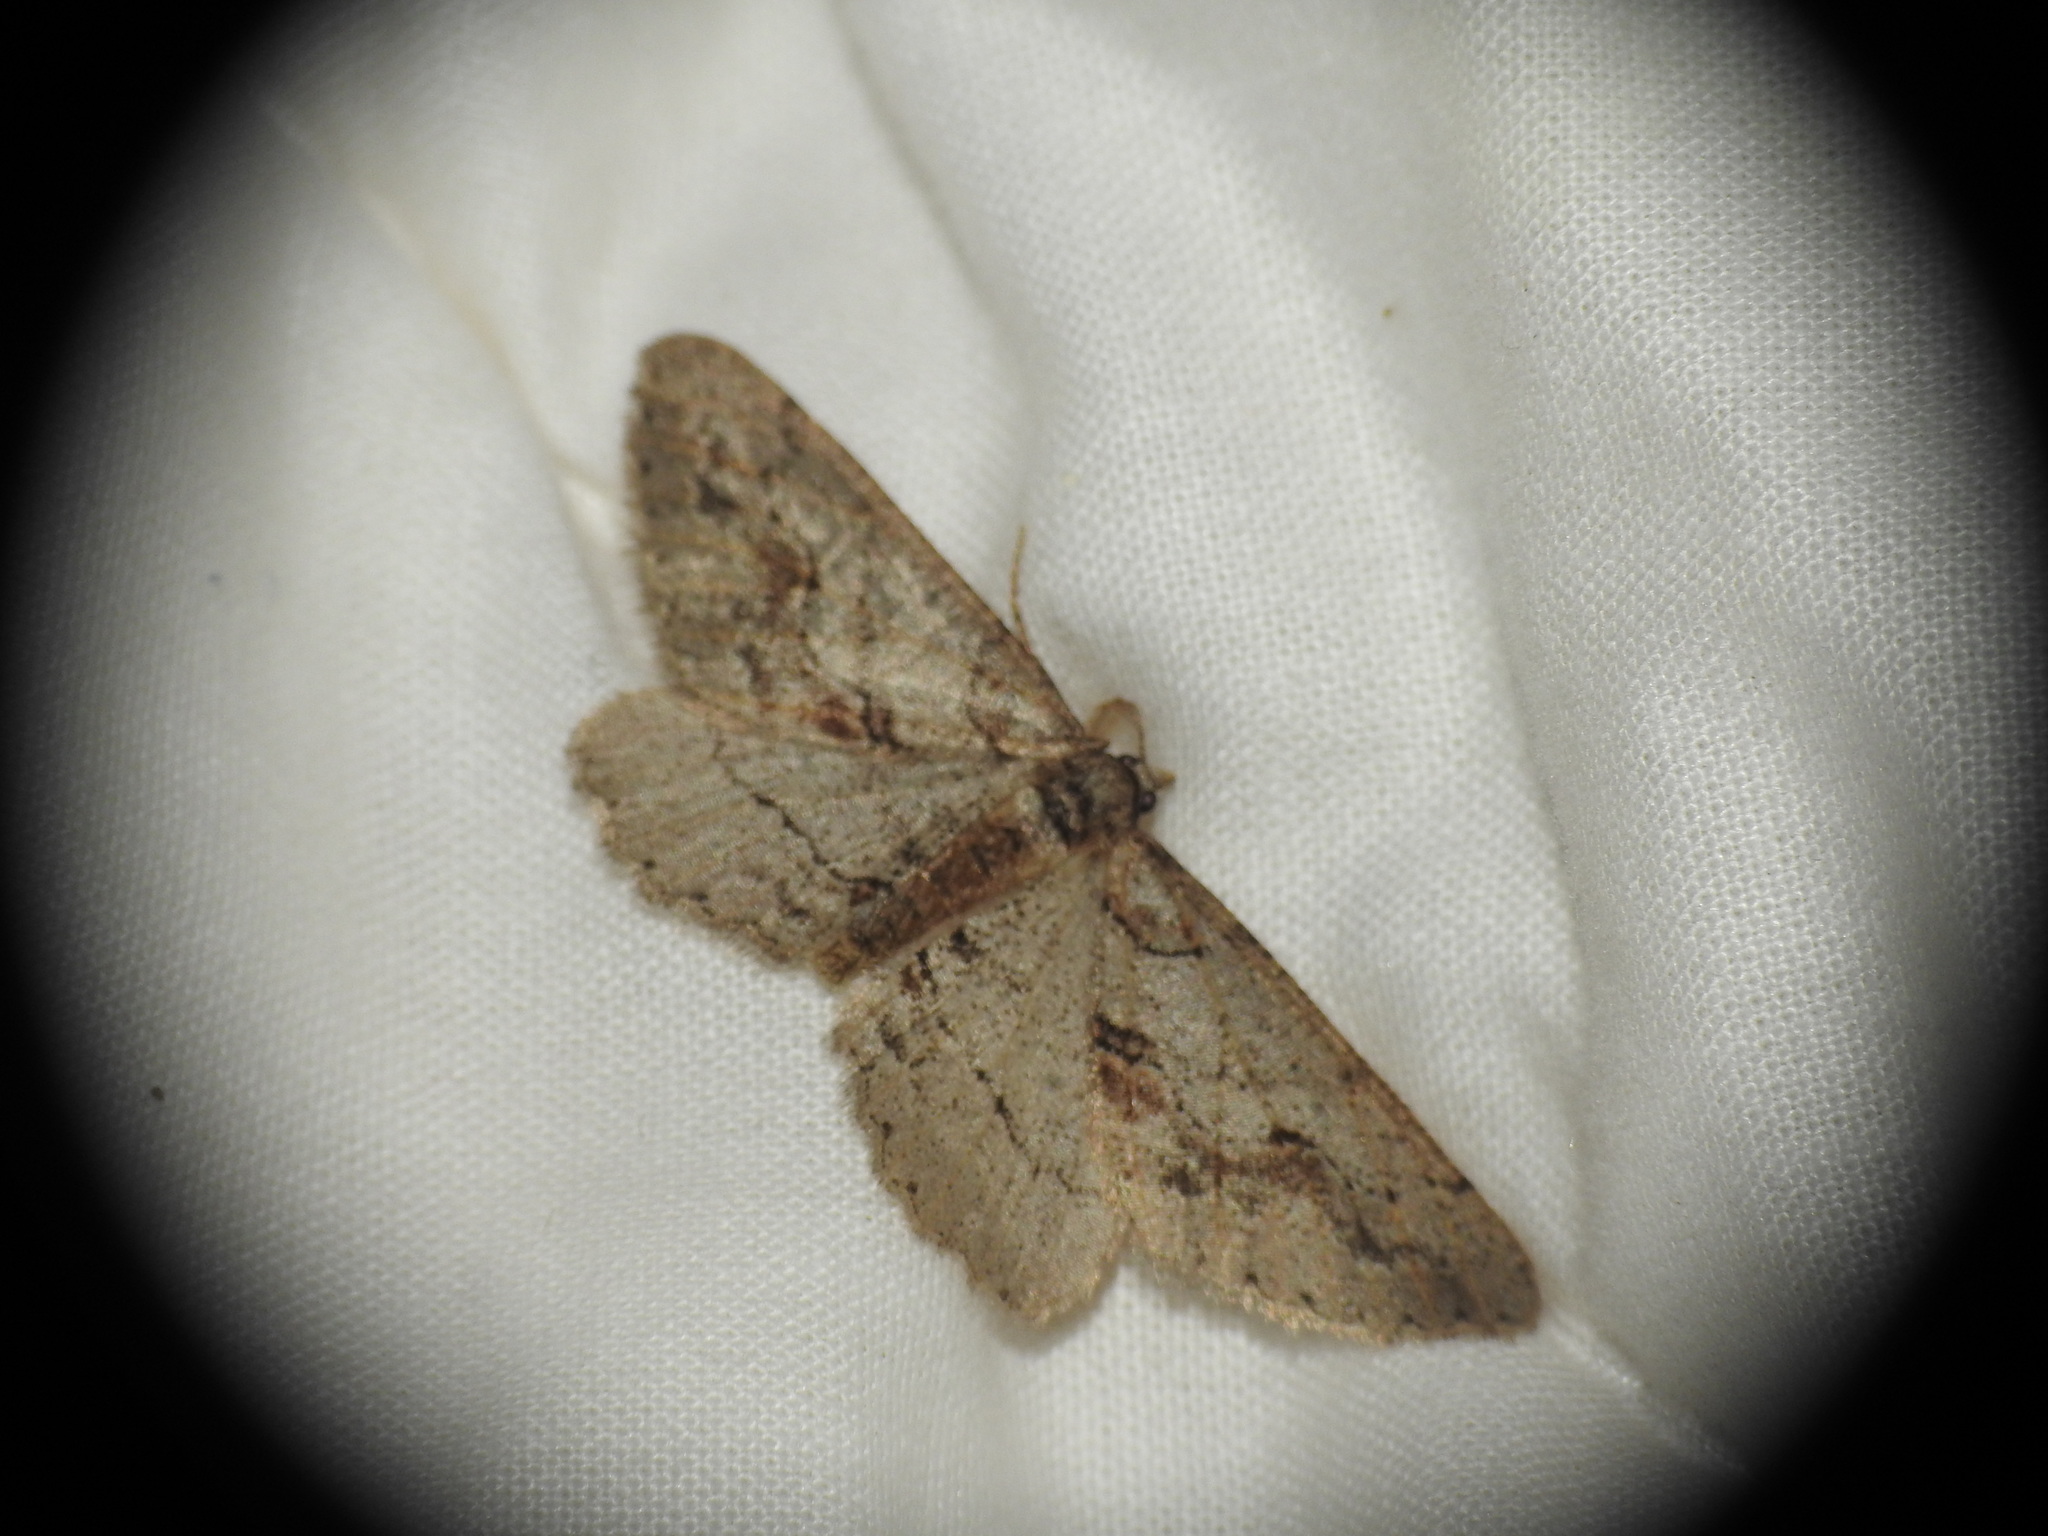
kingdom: Animalia
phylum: Arthropoda
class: Insecta
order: Lepidoptera
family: Geometridae
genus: Agriopis
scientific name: Agriopis bajaria
